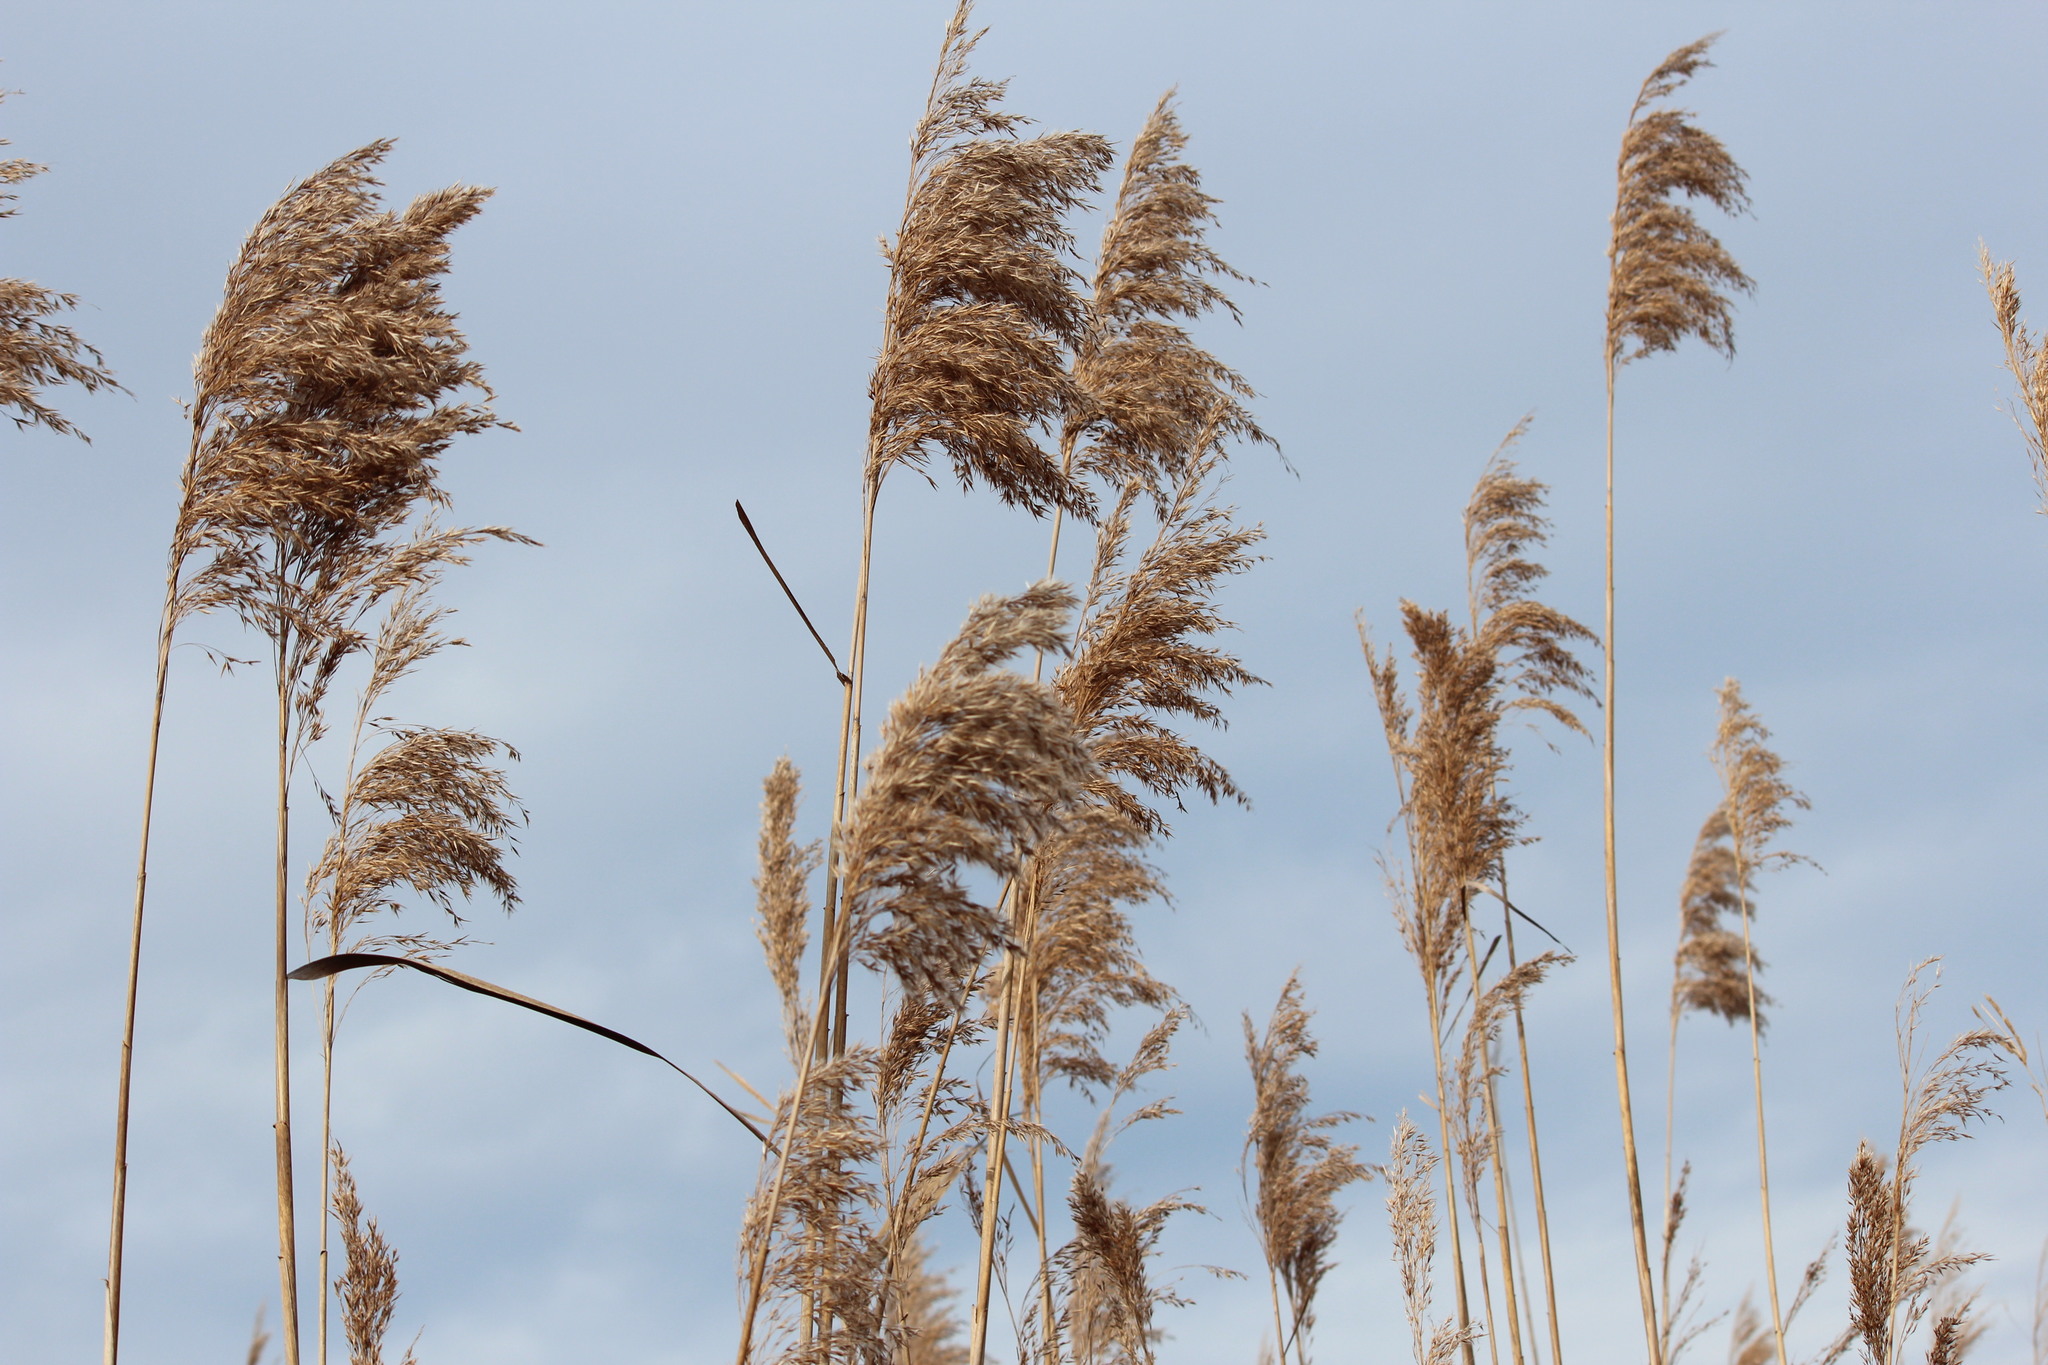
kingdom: Plantae
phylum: Tracheophyta
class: Liliopsida
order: Poales
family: Poaceae
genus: Phragmites
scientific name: Phragmites australis
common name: Common reed
